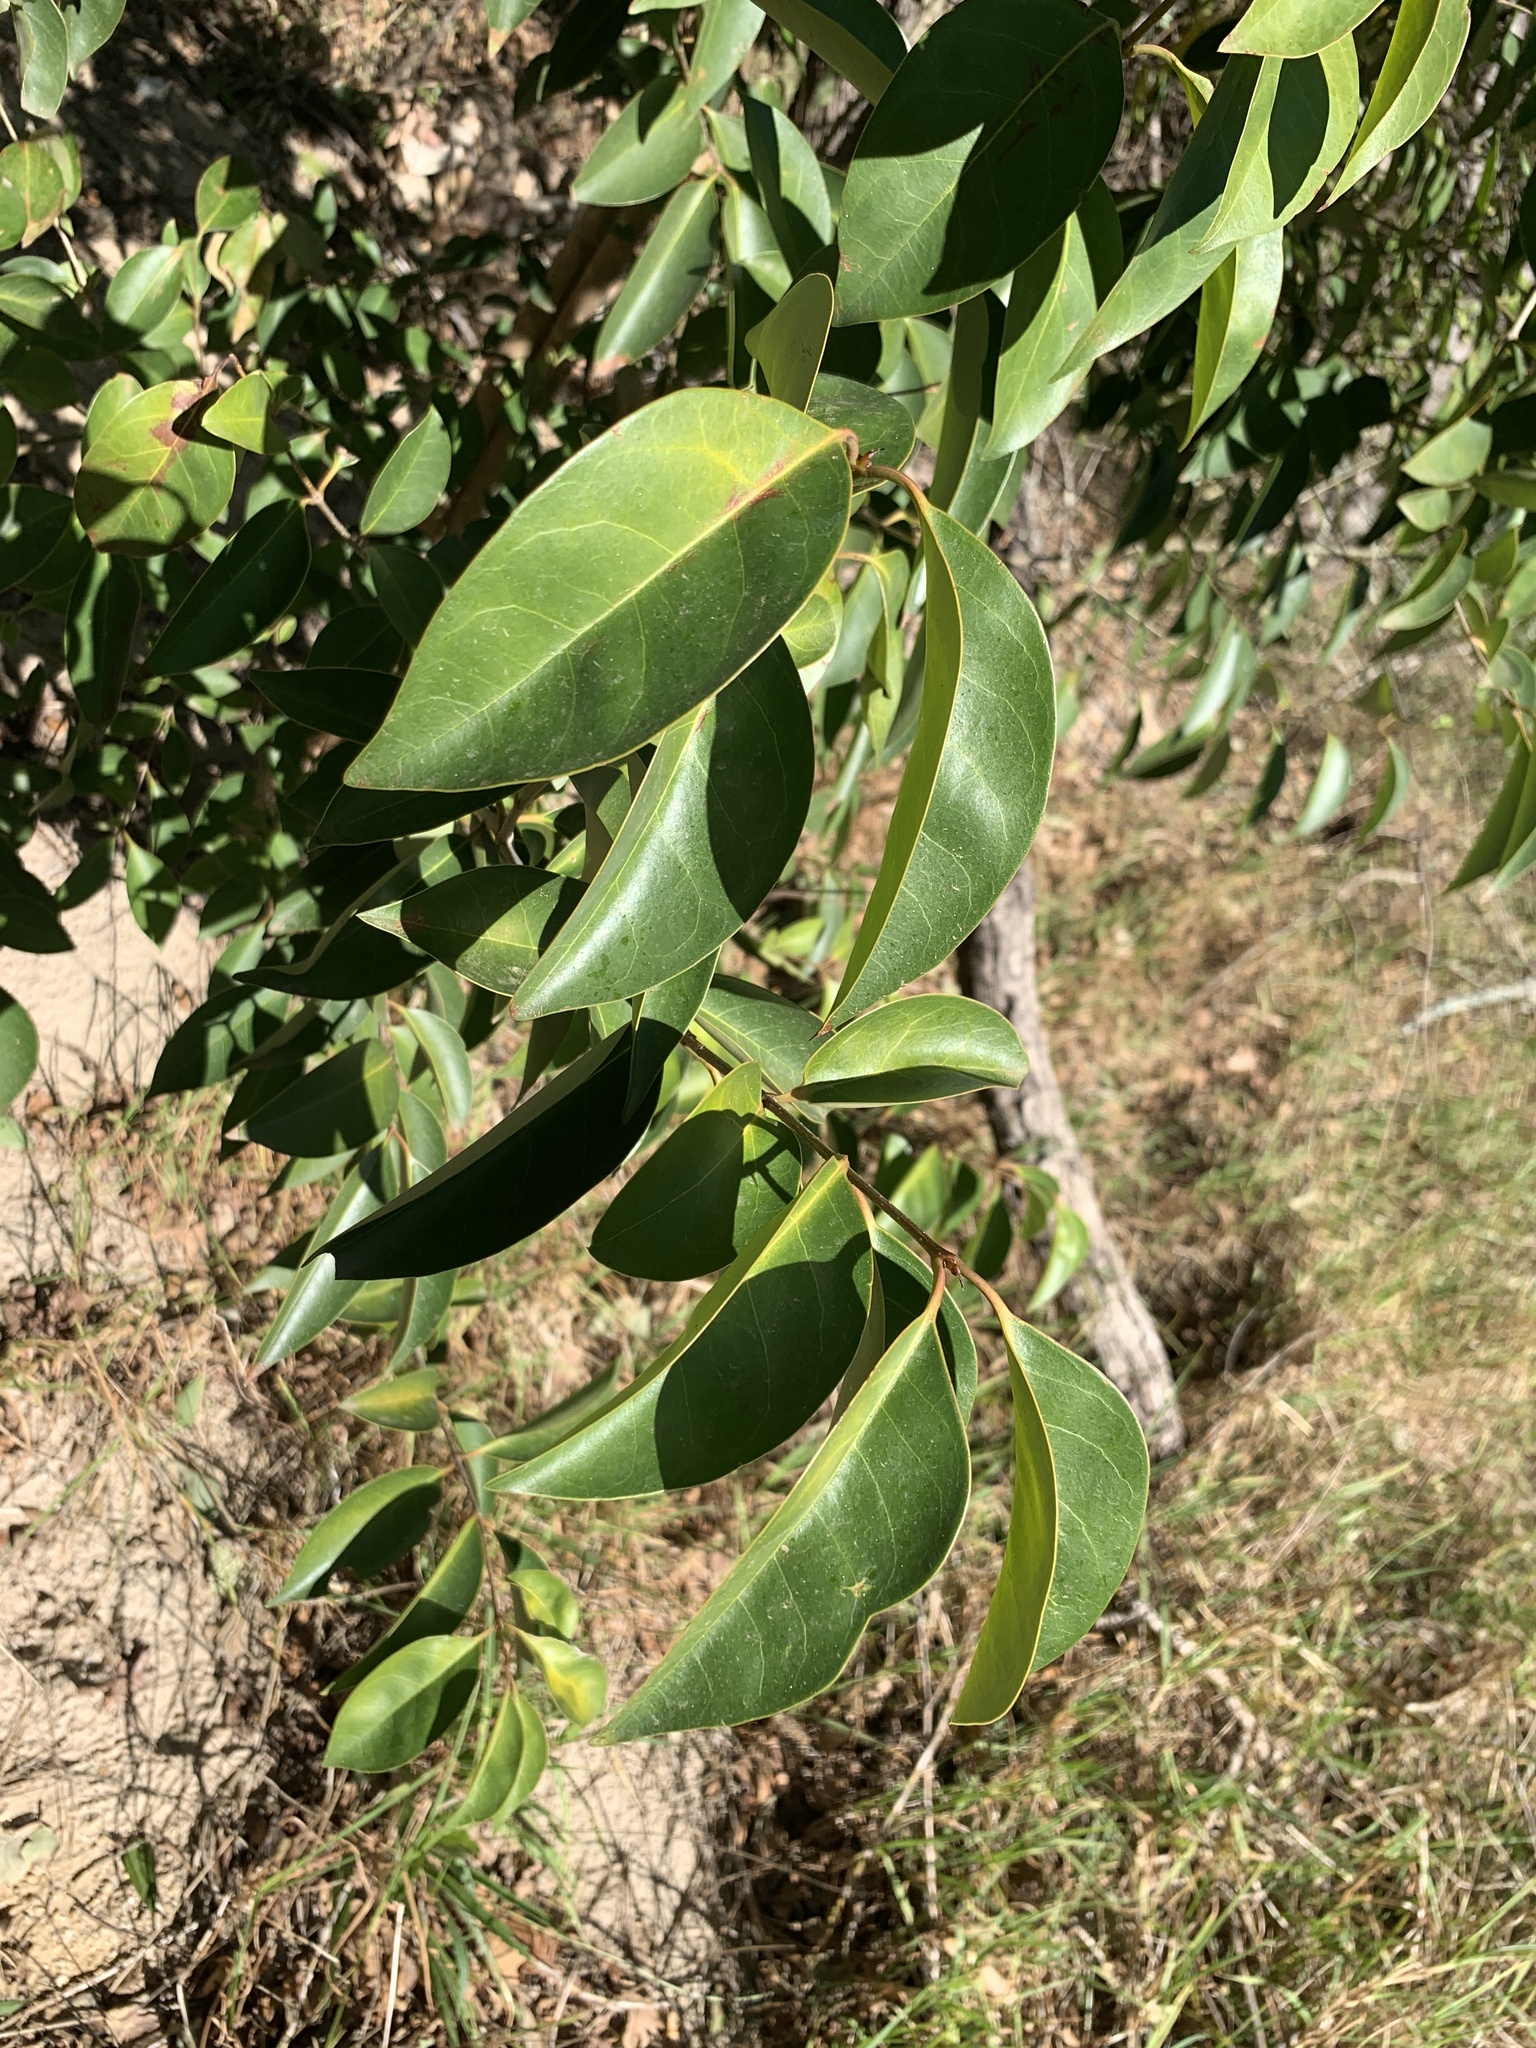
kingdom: Plantae
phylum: Tracheophyta
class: Magnoliopsida
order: Lamiales
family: Oleaceae
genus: Ligustrum
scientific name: Ligustrum lucidum
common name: Glossy privet
